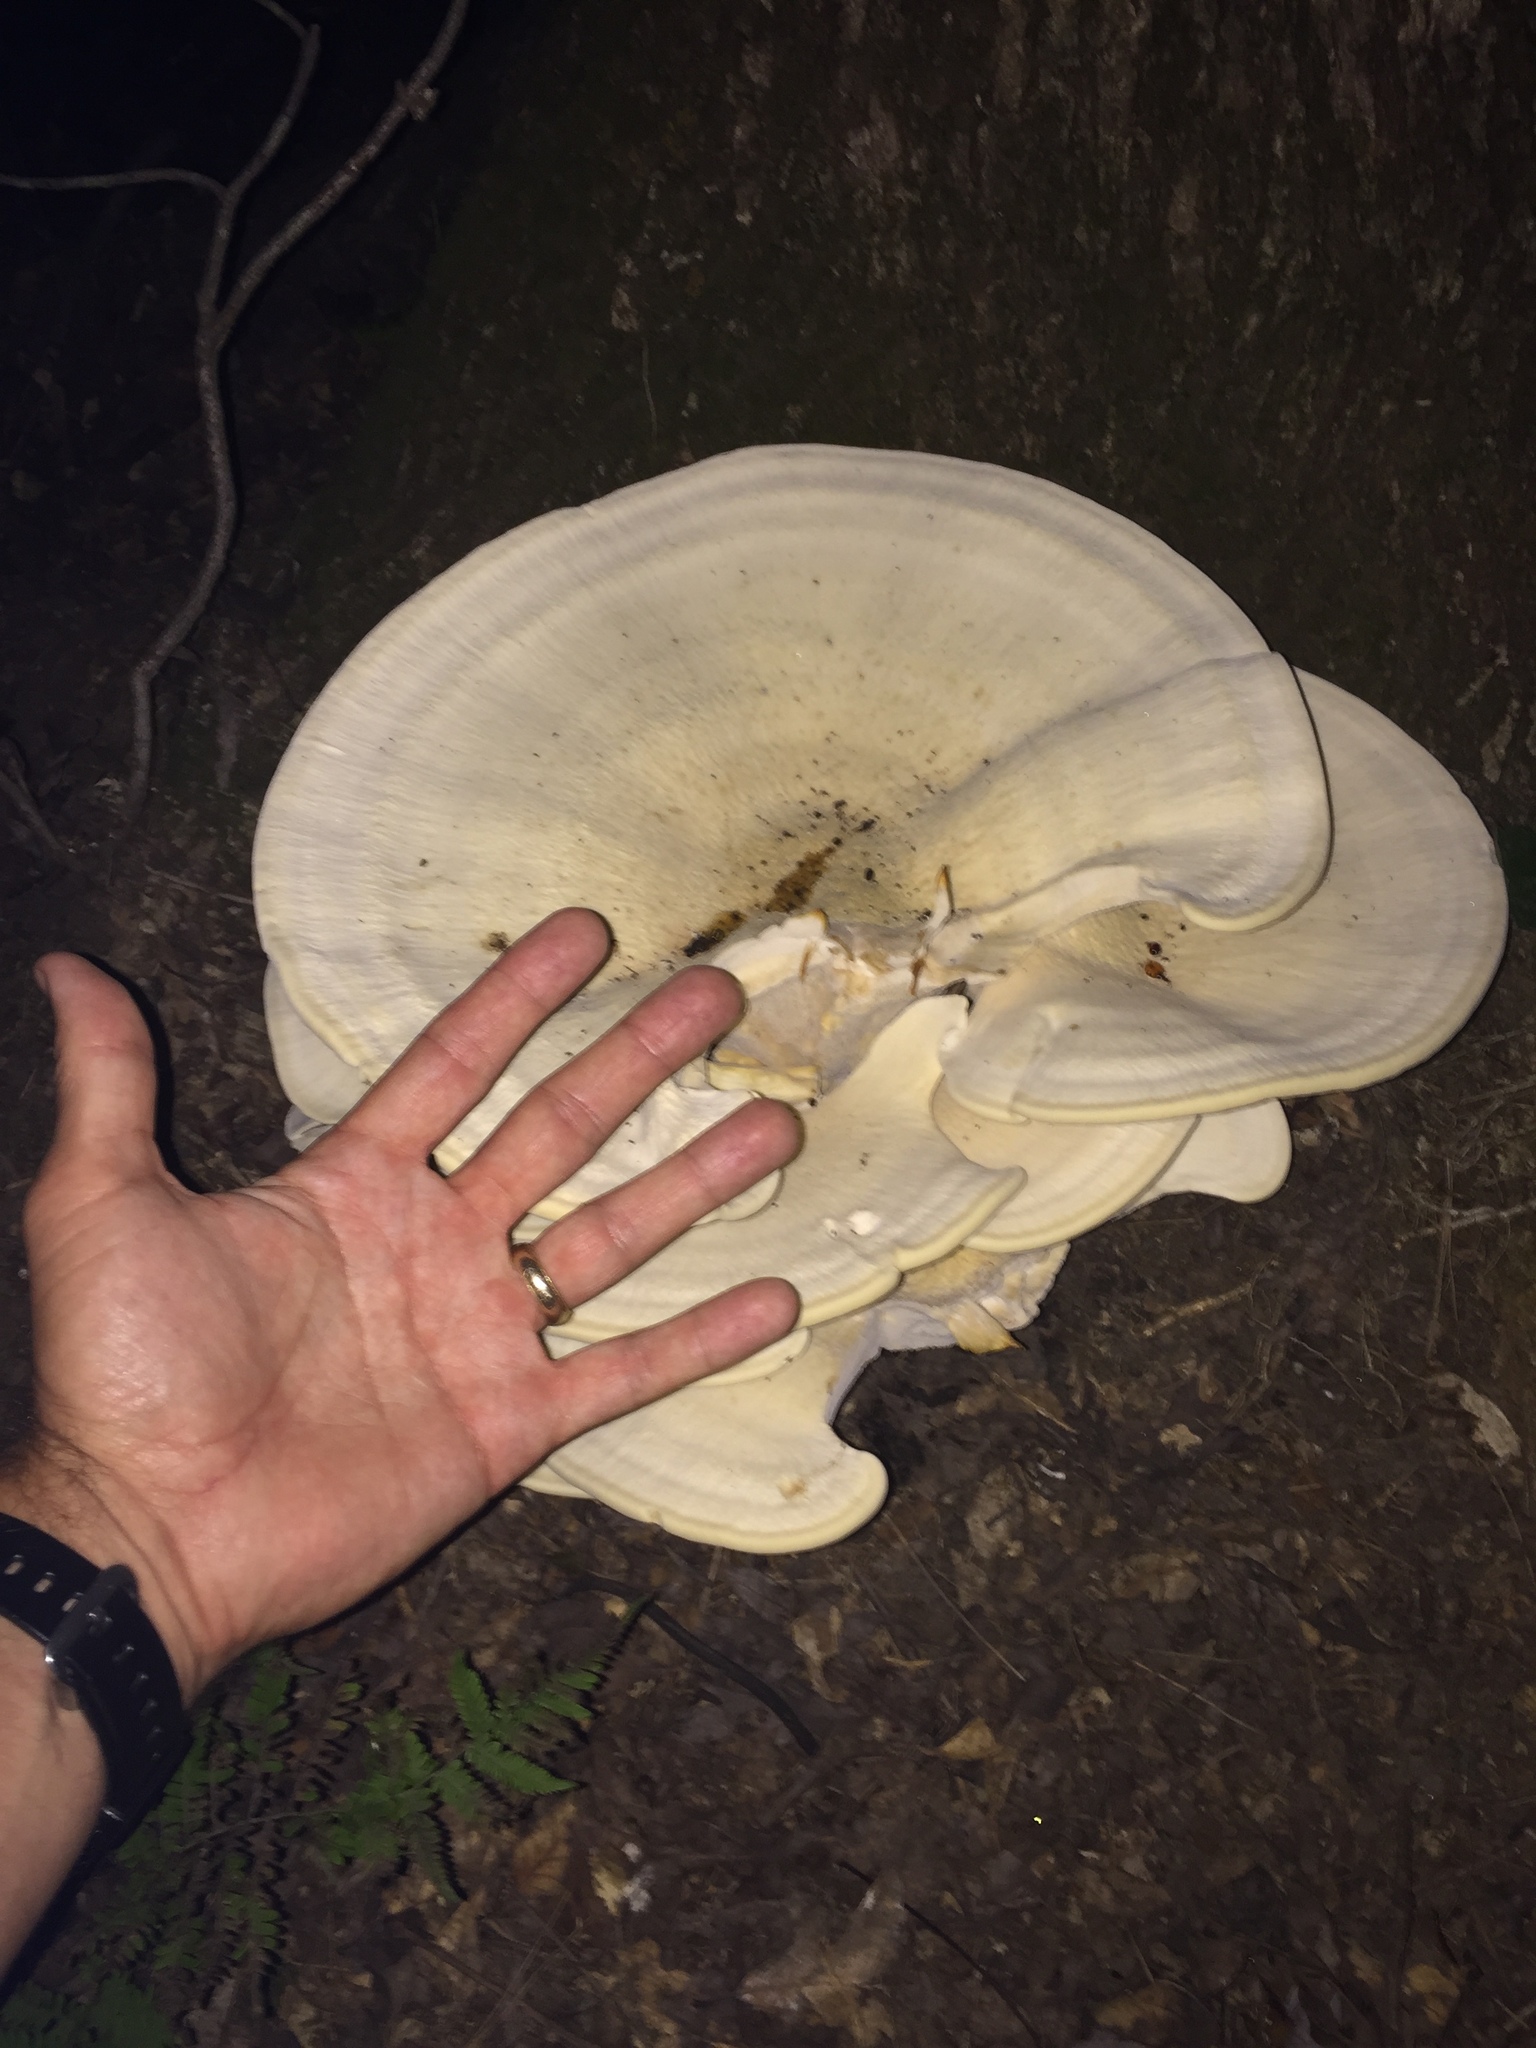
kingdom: Fungi
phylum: Basidiomycota
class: Agaricomycetes
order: Russulales
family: Bondarzewiaceae
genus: Bondarzewia
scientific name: Bondarzewia berkeleyi
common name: Berkeley's polypore
